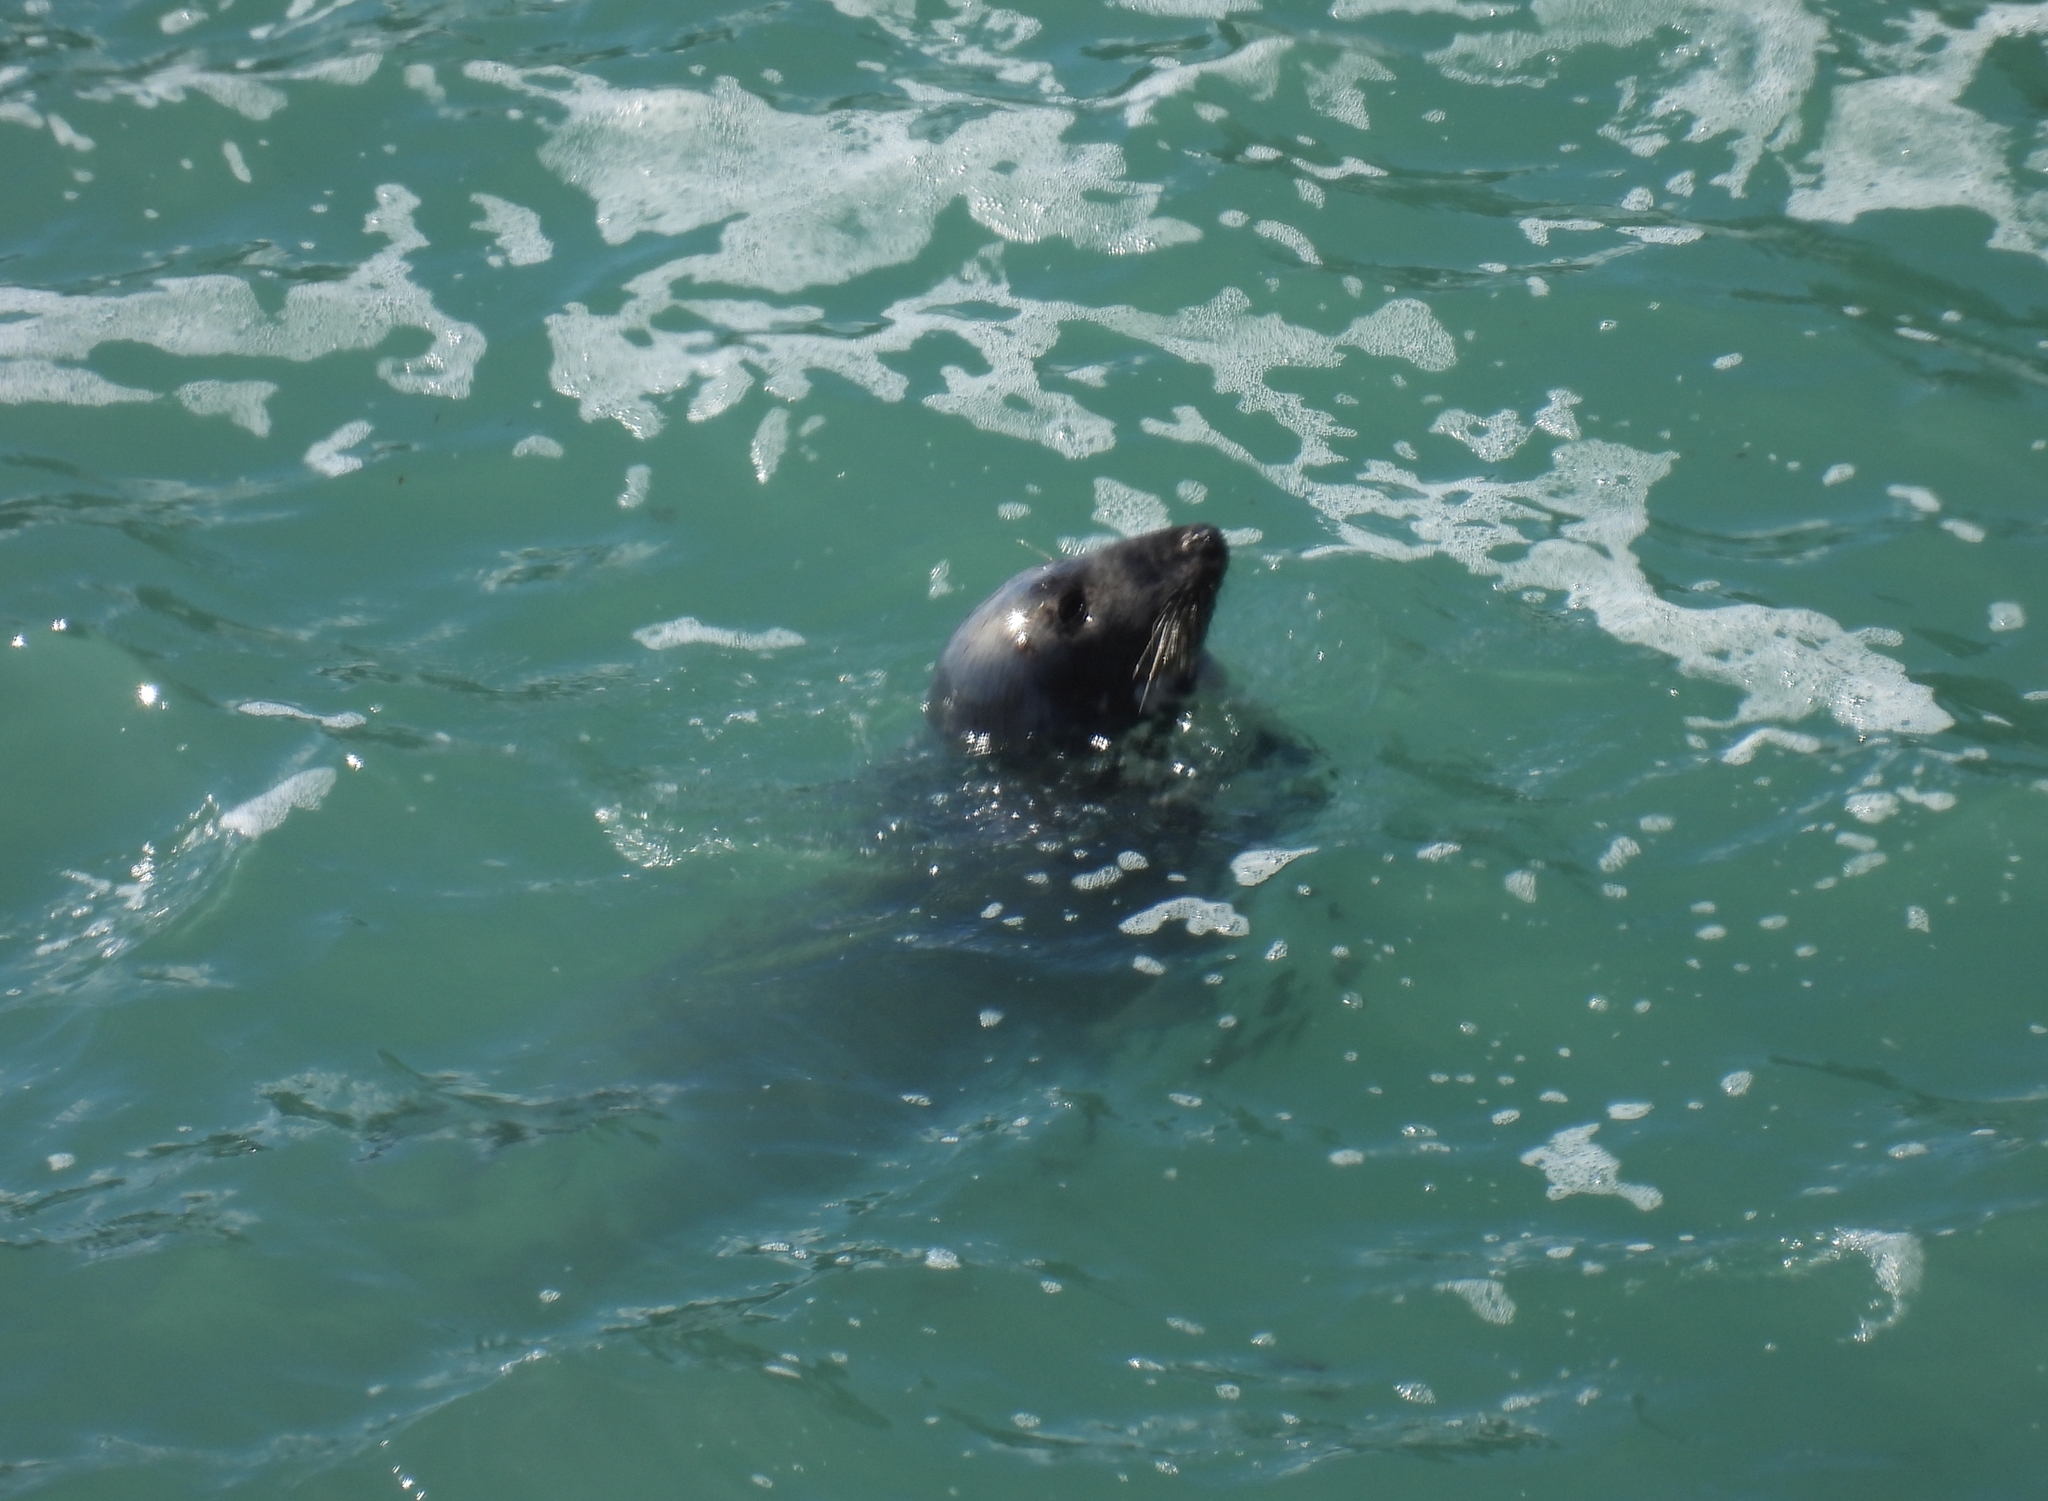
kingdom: Animalia
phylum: Chordata
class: Mammalia
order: Carnivora
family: Phocidae
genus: Halichoerus
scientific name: Halichoerus grypus
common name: Grey seal
